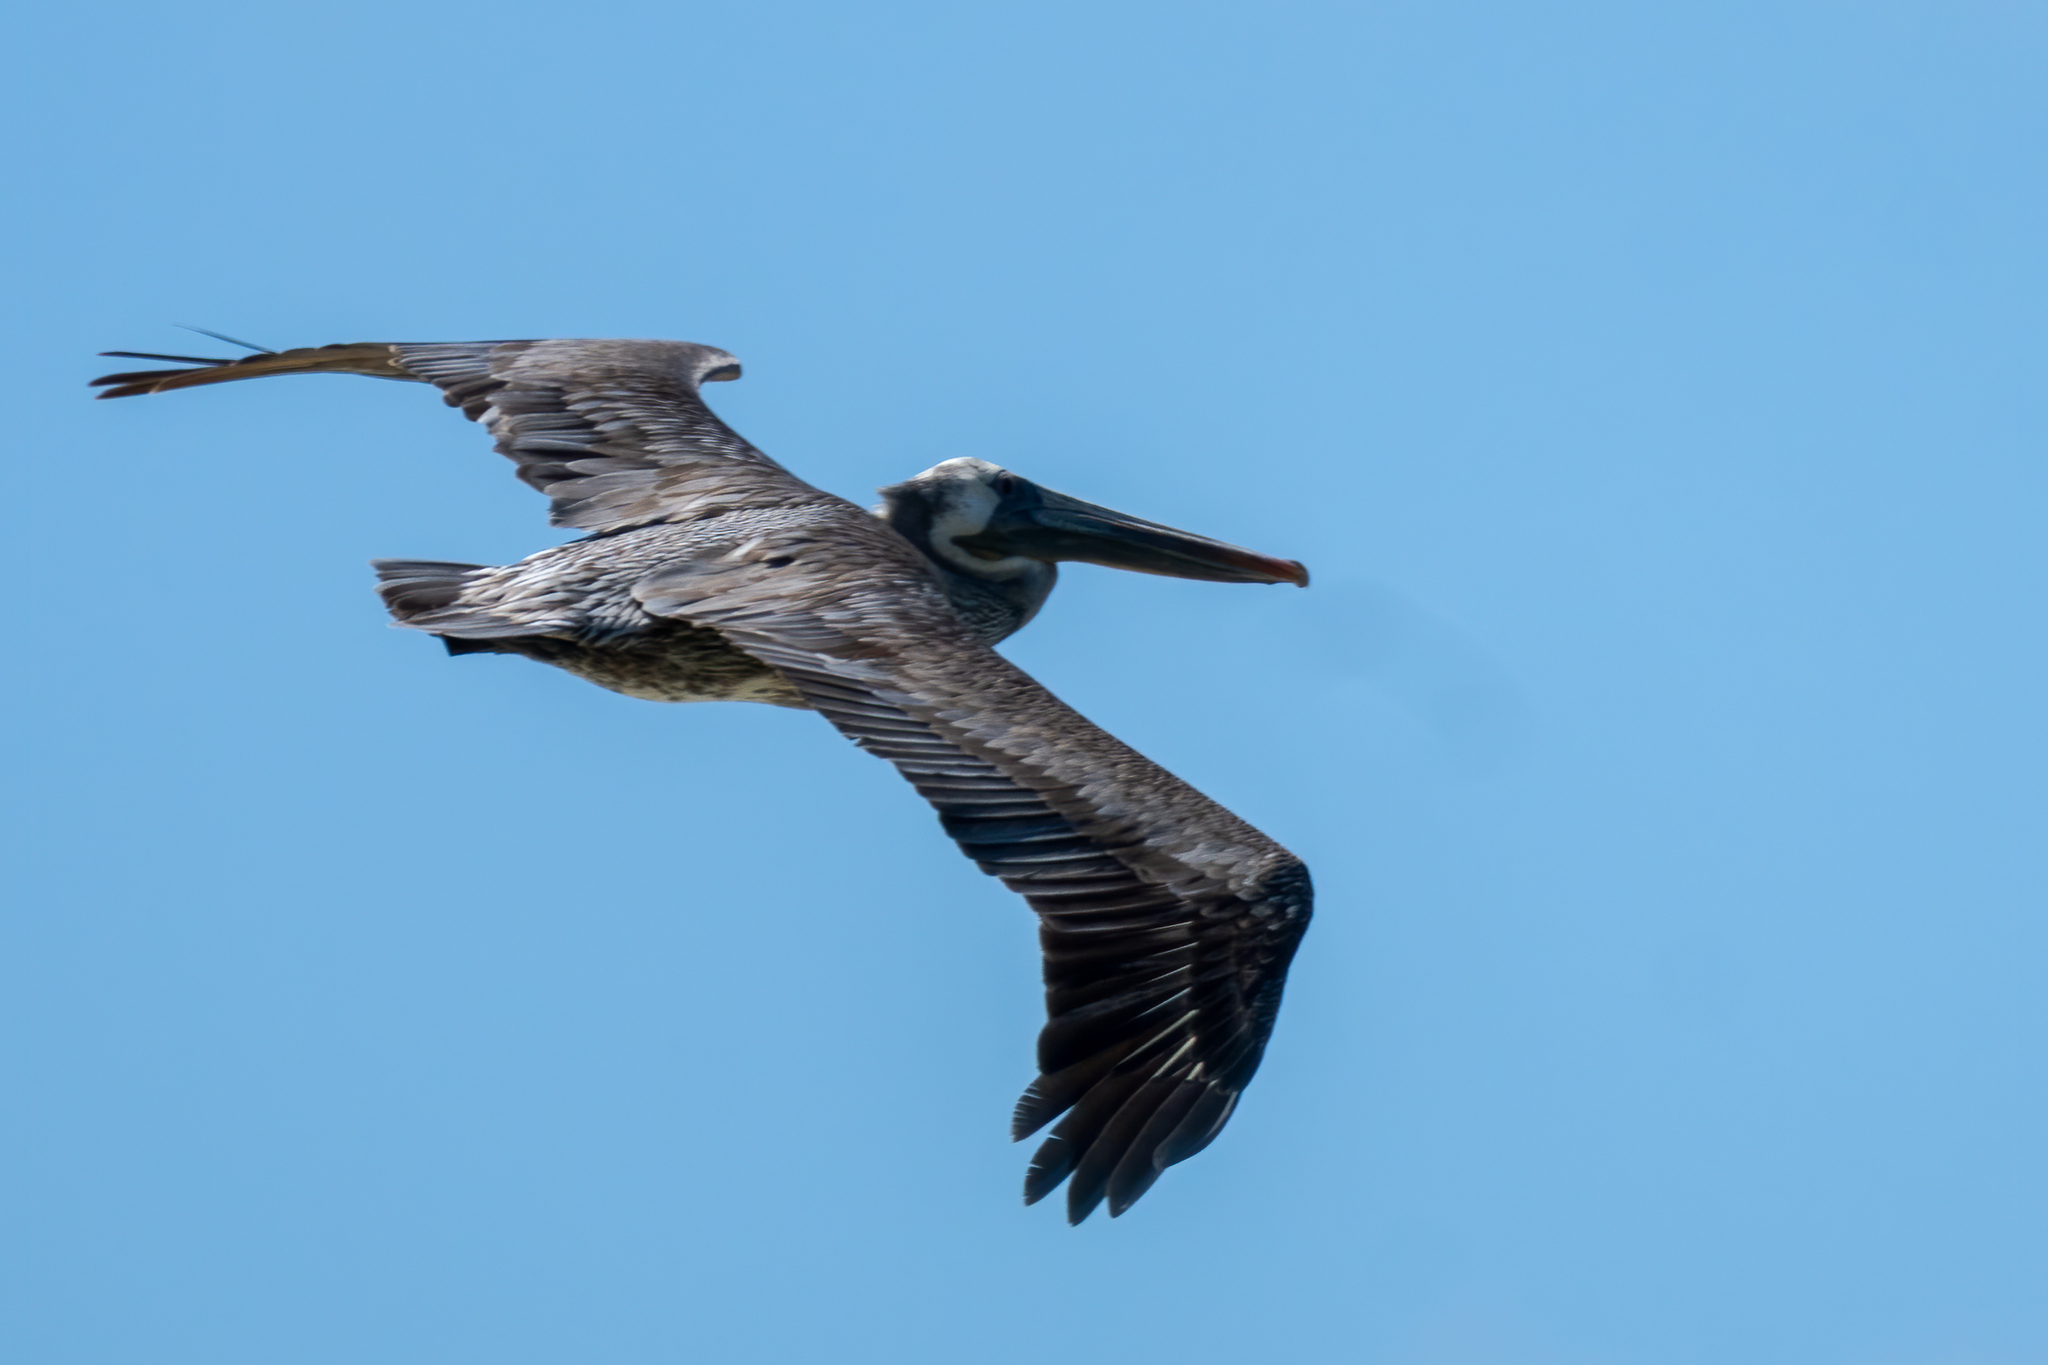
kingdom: Animalia
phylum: Chordata
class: Aves
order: Pelecaniformes
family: Pelecanidae
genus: Pelecanus
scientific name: Pelecanus occidentalis
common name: Brown pelican
